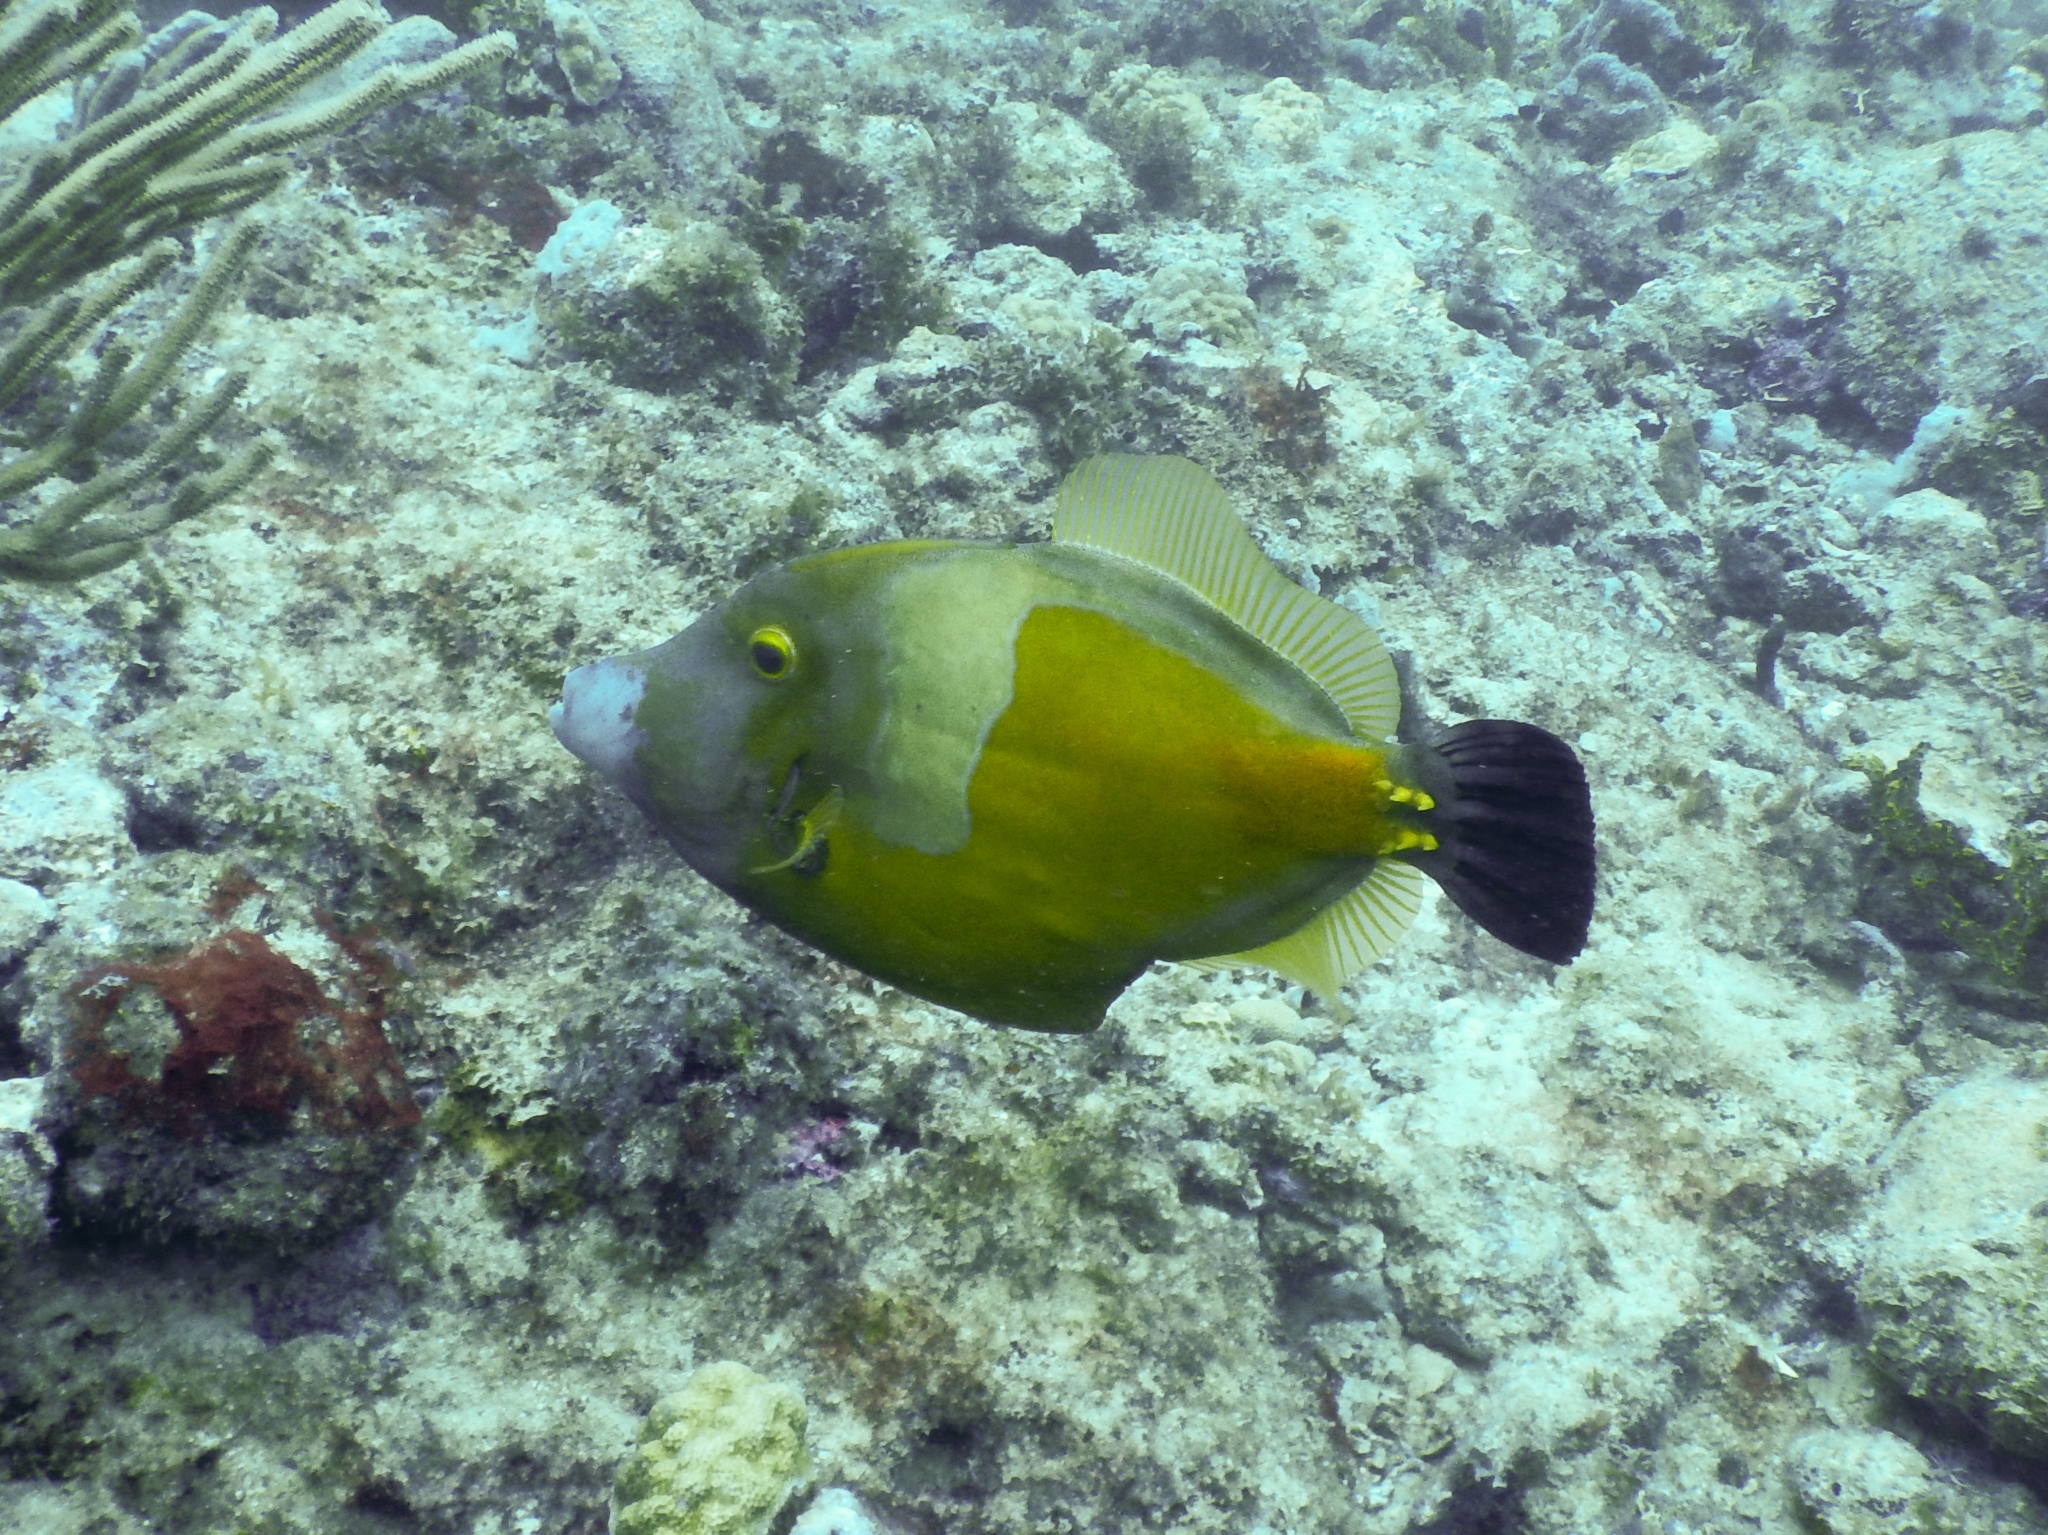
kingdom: Animalia
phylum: Chordata
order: Tetraodontiformes
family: Monacanthidae
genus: Cantherhines
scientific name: Cantherhines macrocerus
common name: Whitespotted filefish
